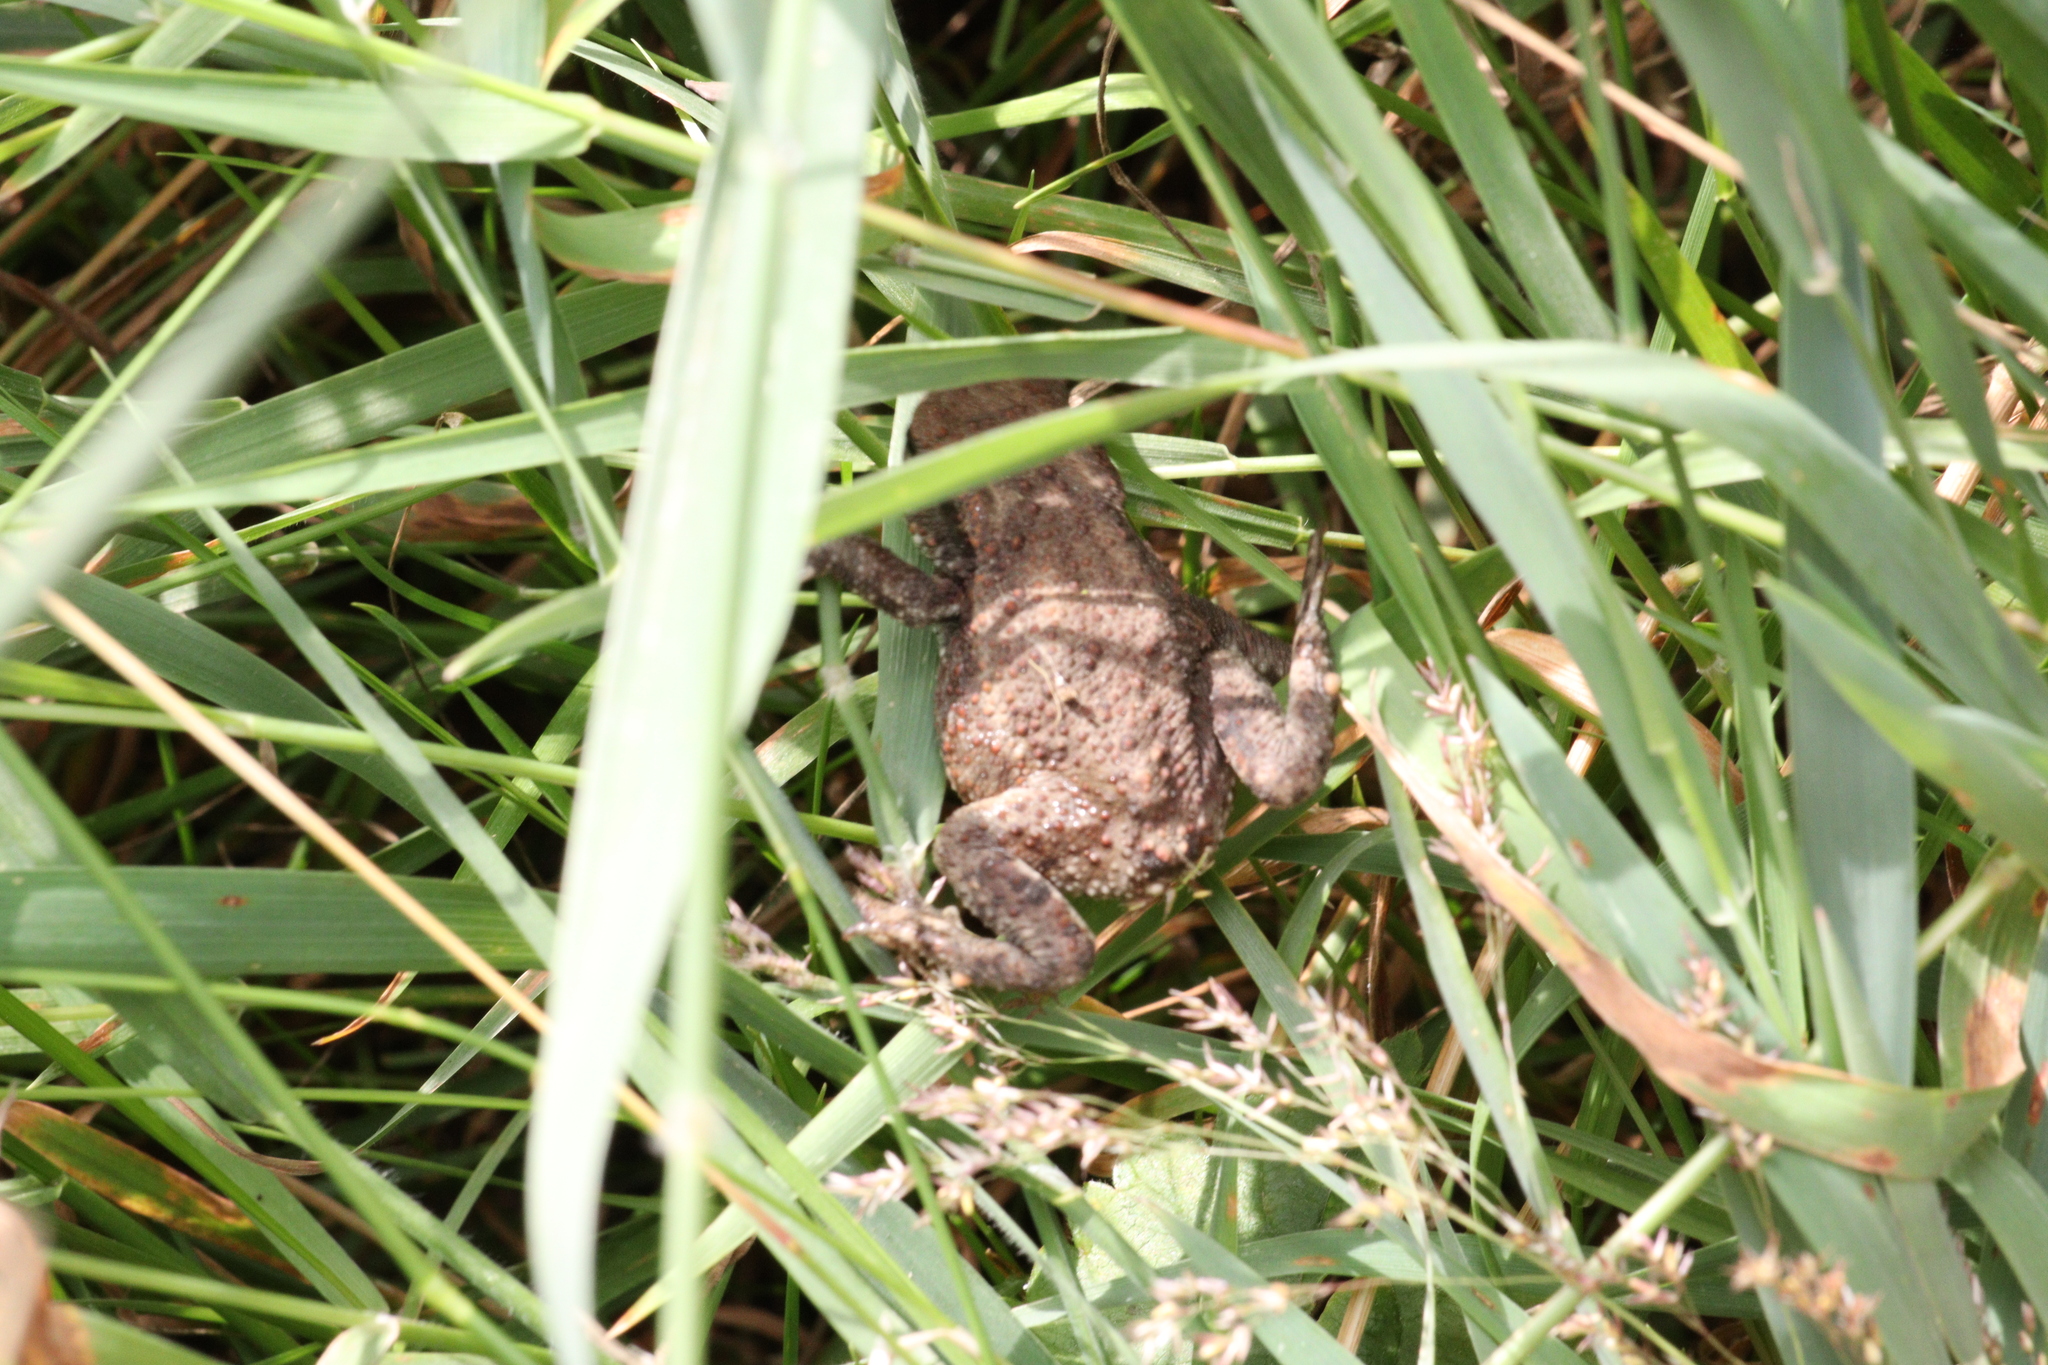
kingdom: Animalia
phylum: Chordata
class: Amphibia
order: Anura
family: Bufonidae
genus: Bufo
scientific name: Bufo bufo
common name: Common toad
